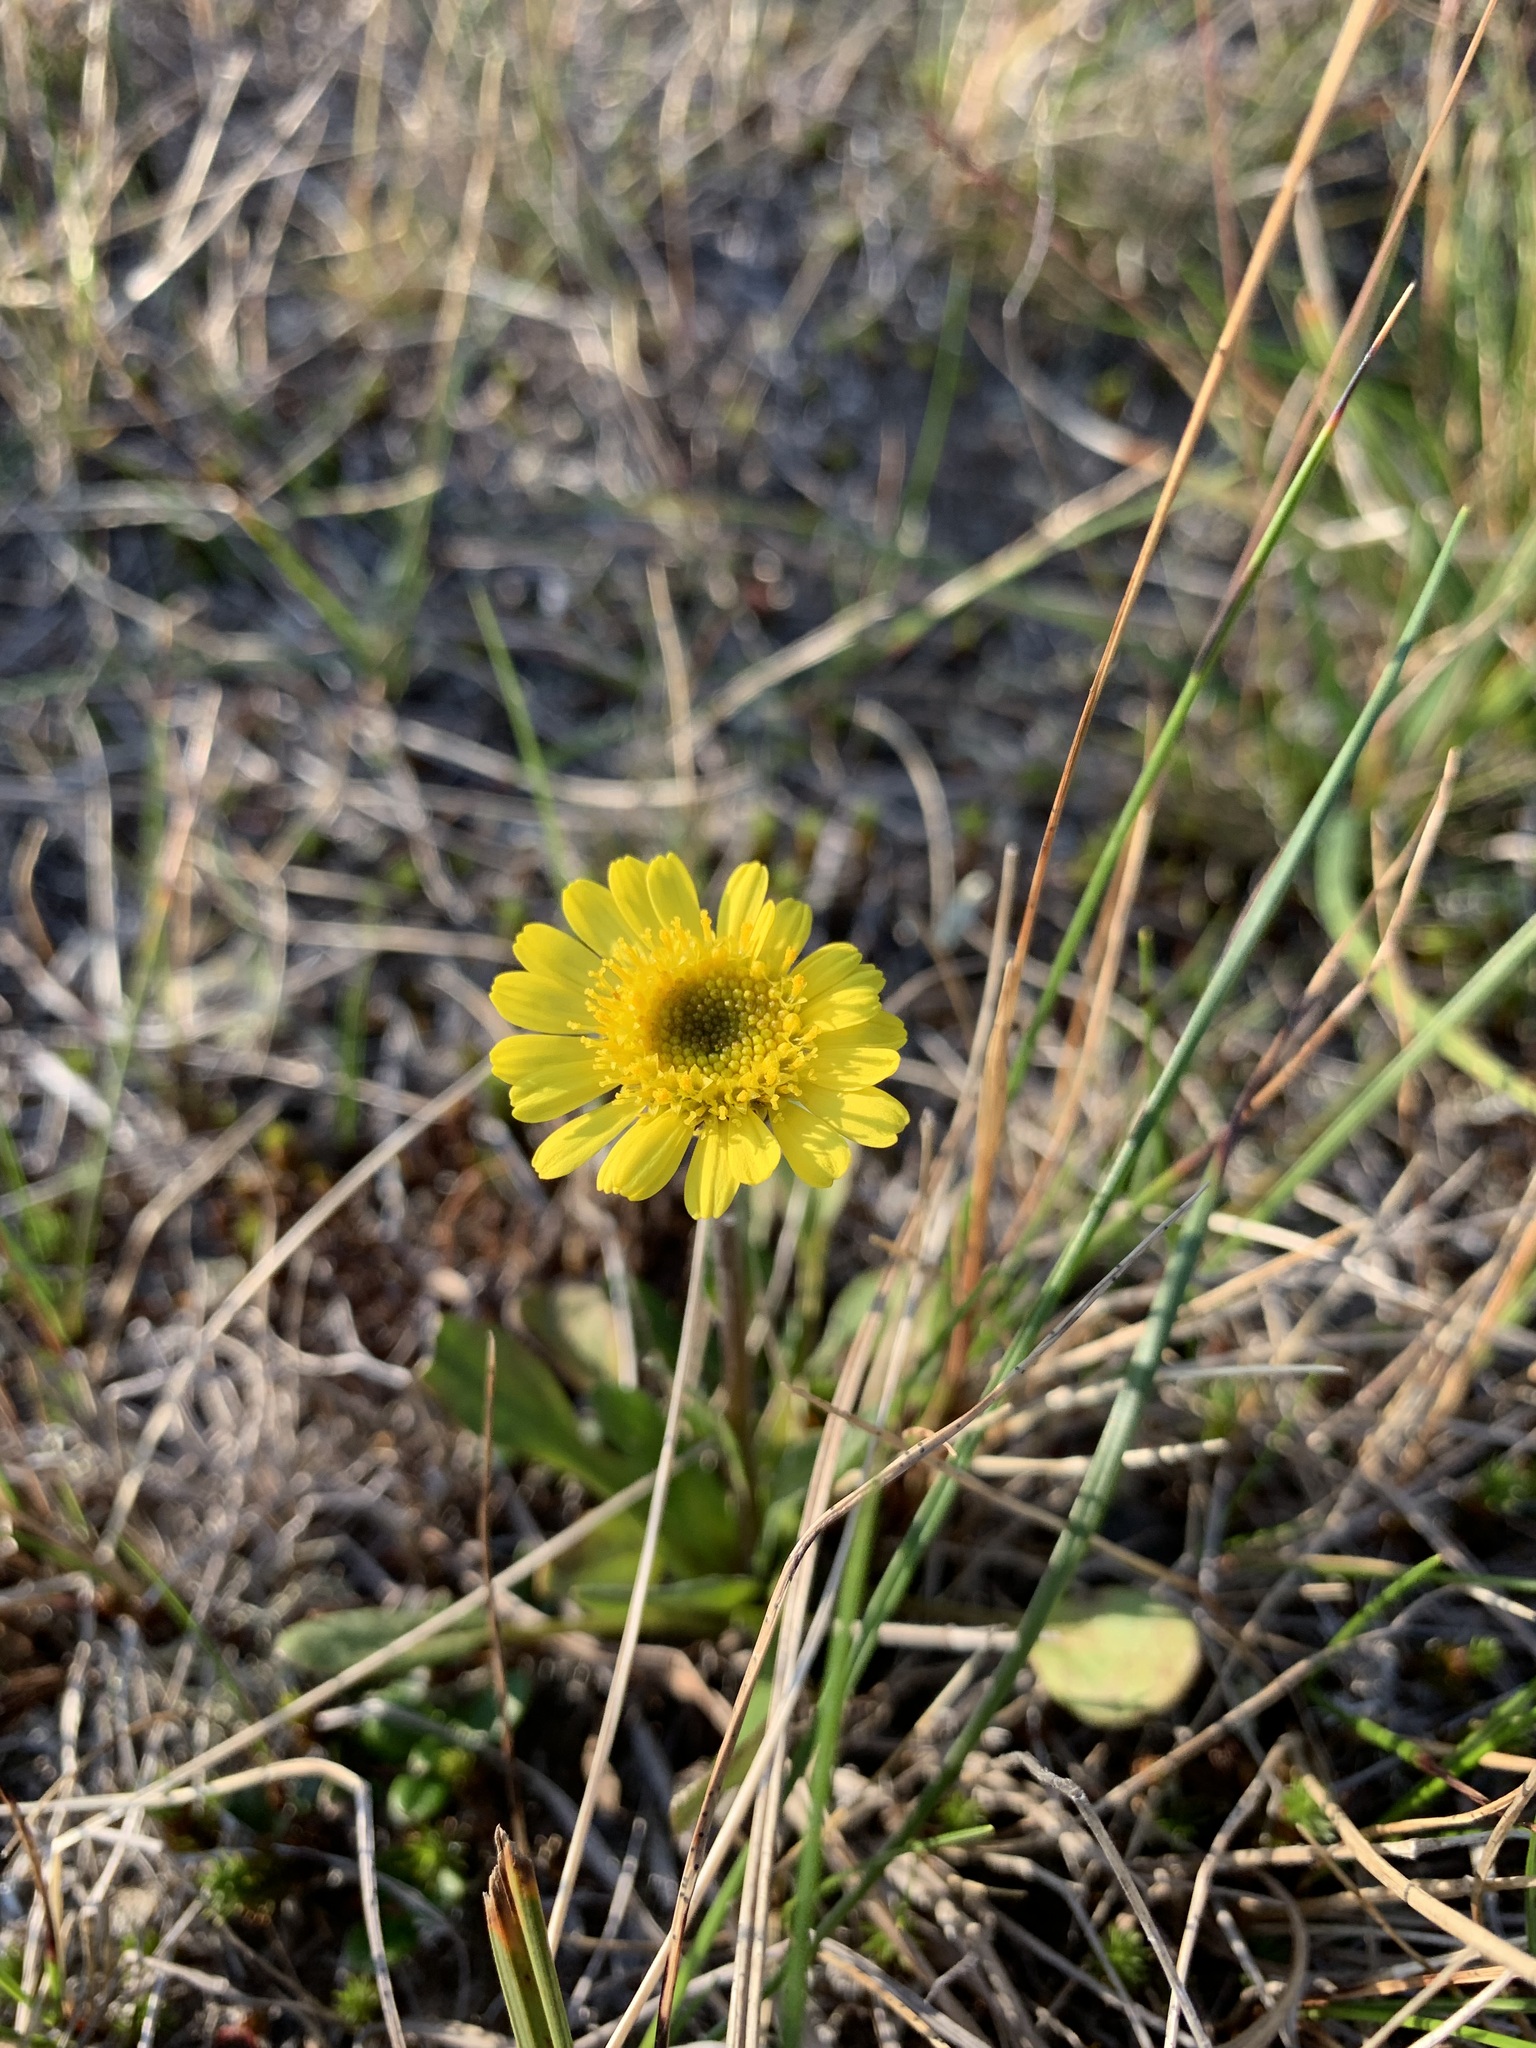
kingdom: Plantae
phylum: Tracheophyta
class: Magnoliopsida
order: Asterales
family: Asteraceae
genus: Tephroseris
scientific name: Tephroseris integrifolia
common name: Field fleawort
